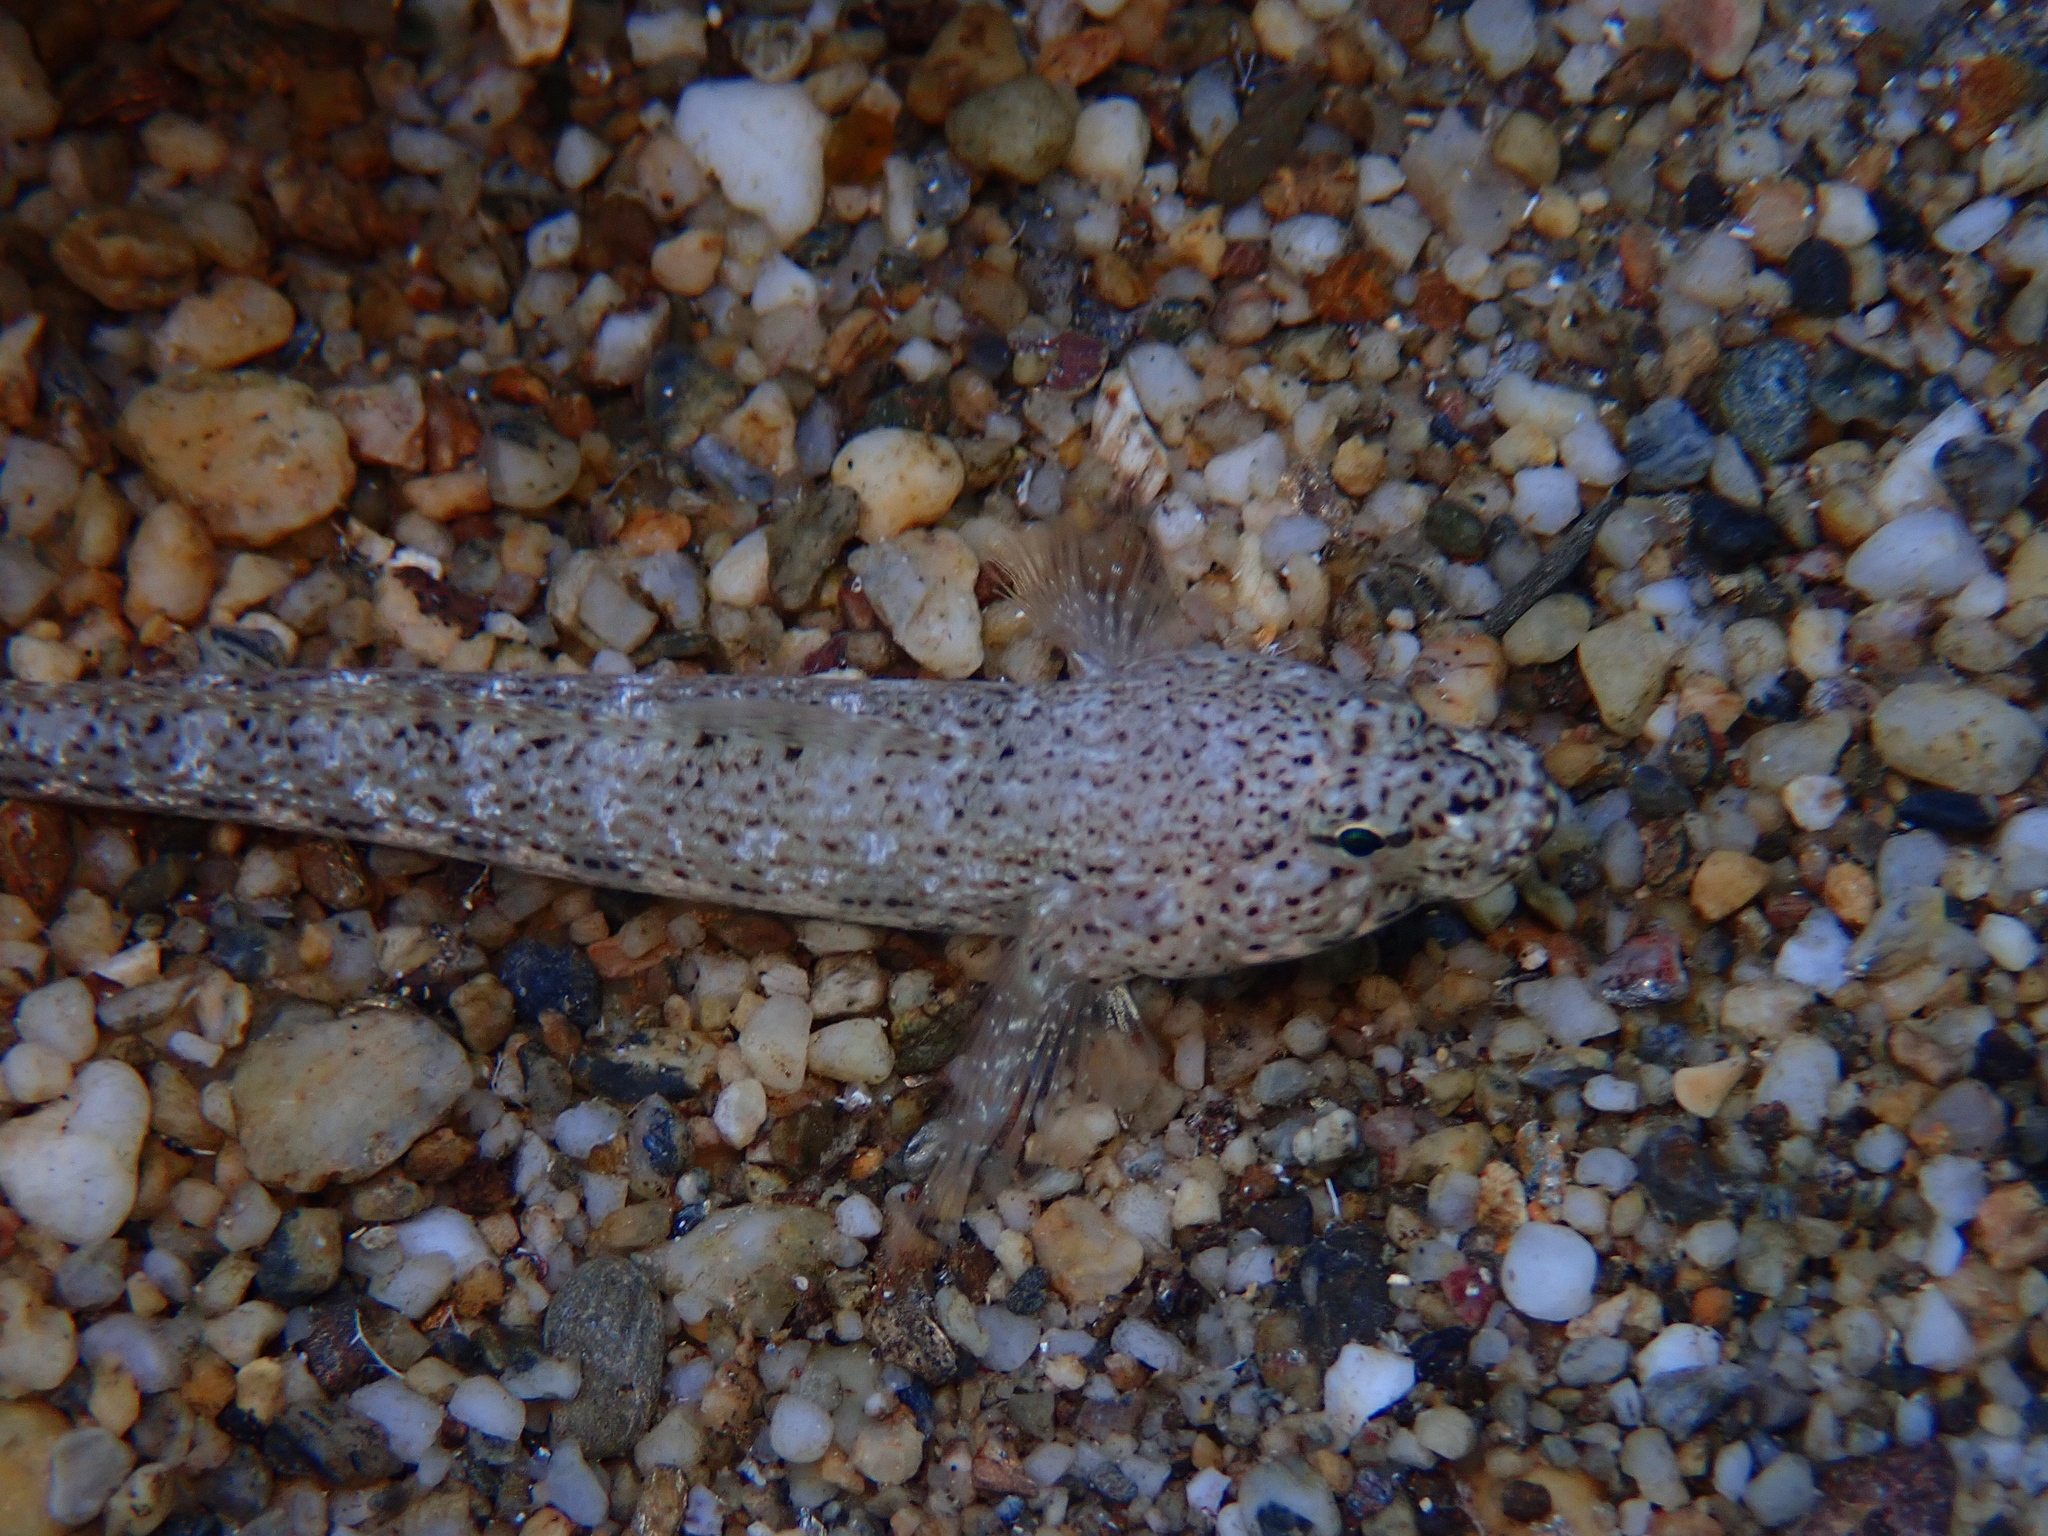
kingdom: Animalia
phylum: Chordata
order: Perciformes
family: Gobiidae
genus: Gobius
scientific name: Gobius incognitus
